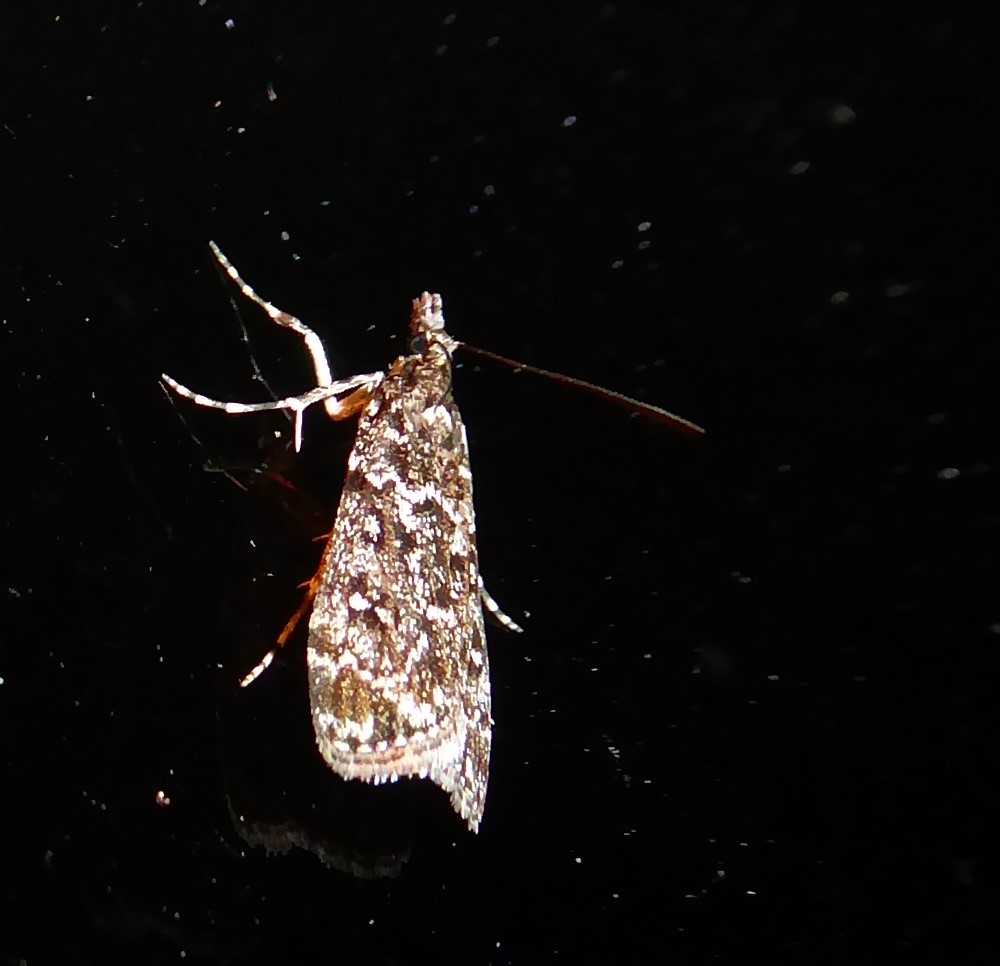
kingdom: Animalia
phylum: Arthropoda
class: Insecta
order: Lepidoptera
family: Crambidae
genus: Eudonia
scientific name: Eudonia philerga
